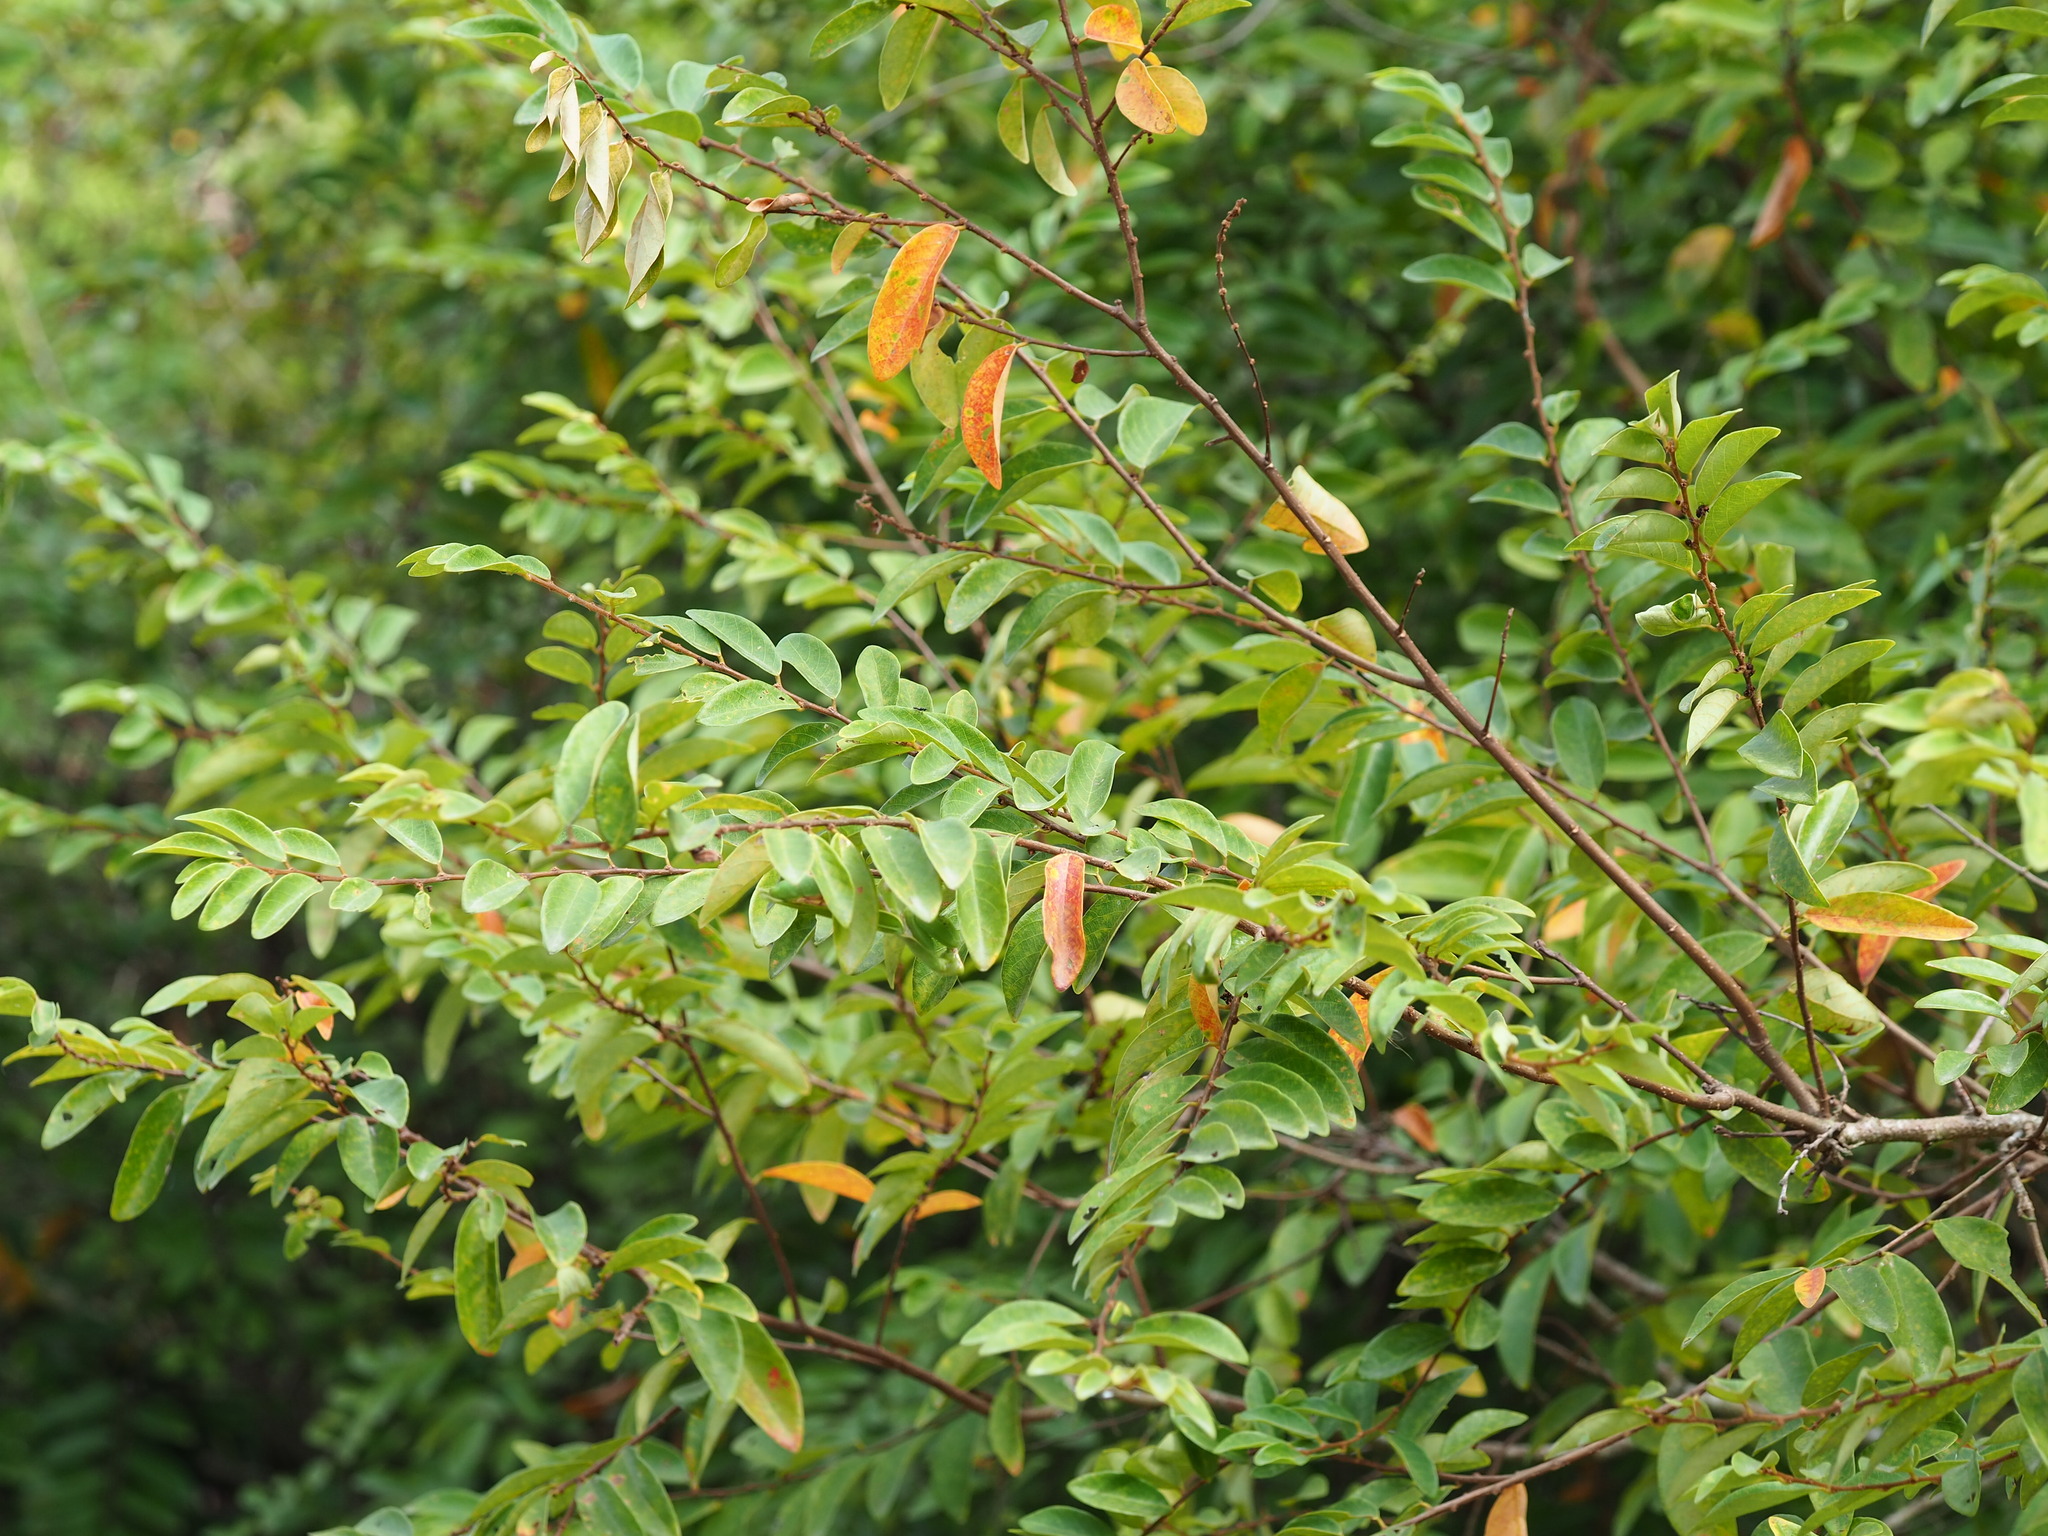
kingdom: Plantae
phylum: Tracheophyta
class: Magnoliopsida
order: Malpighiales
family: Phyllanthaceae
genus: Bridelia
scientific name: Bridelia tomentosa
